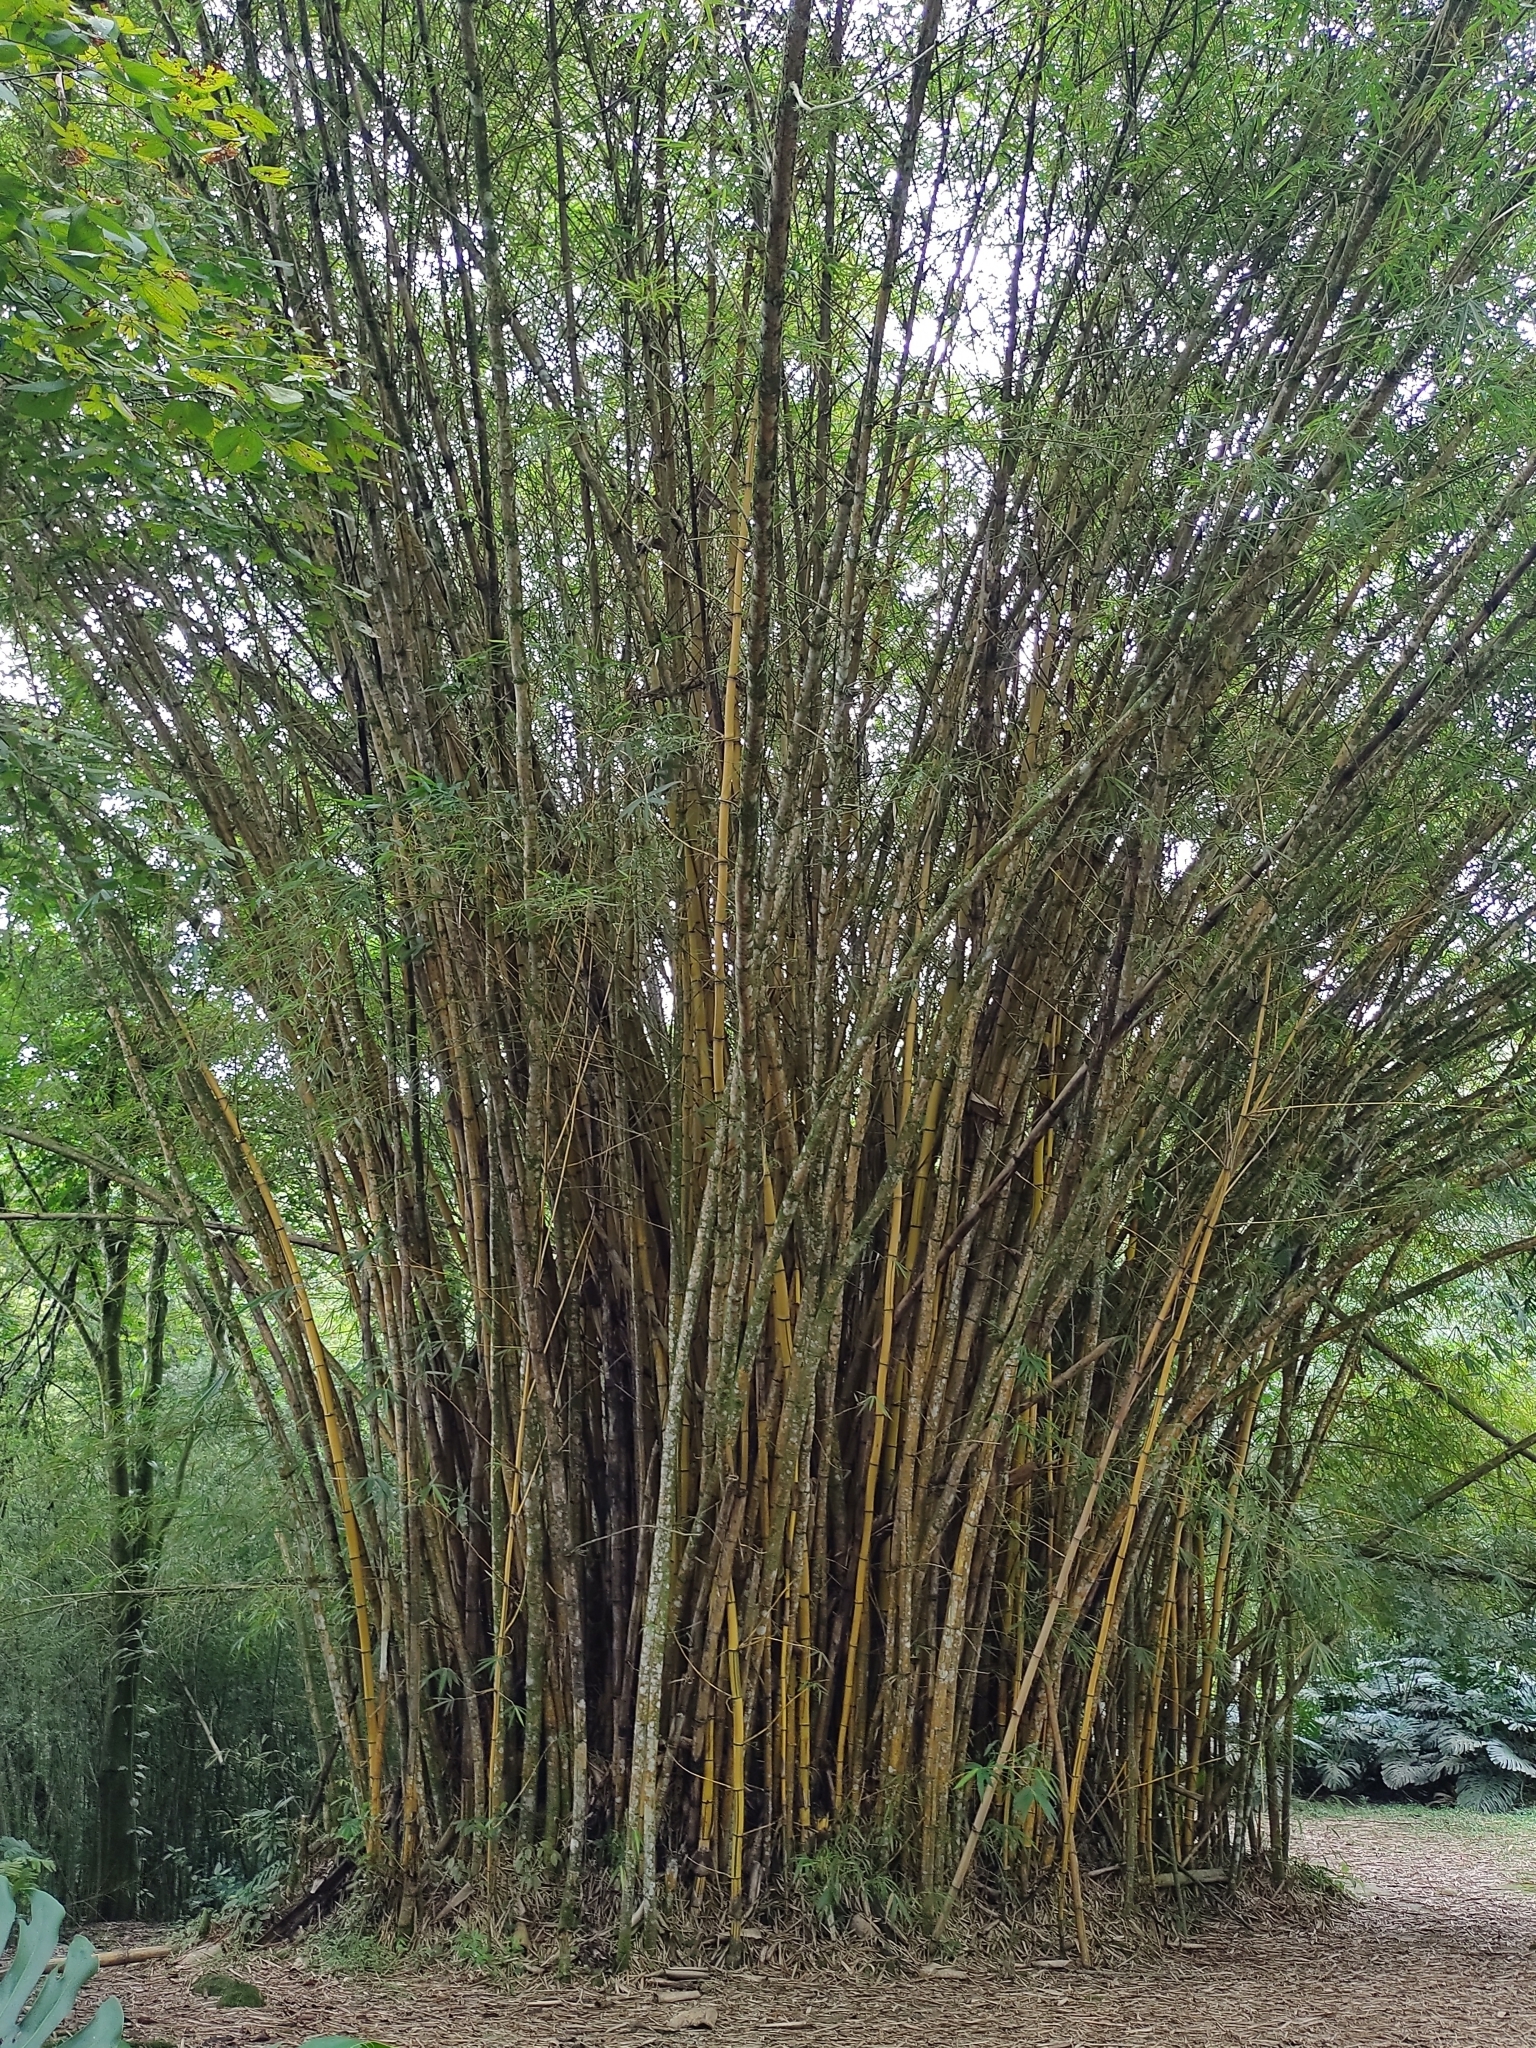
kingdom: Plantae
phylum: Tracheophyta
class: Liliopsida
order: Poales
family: Poaceae
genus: Bambusa
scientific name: Bambusa vulgaris
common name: Common bamboo
